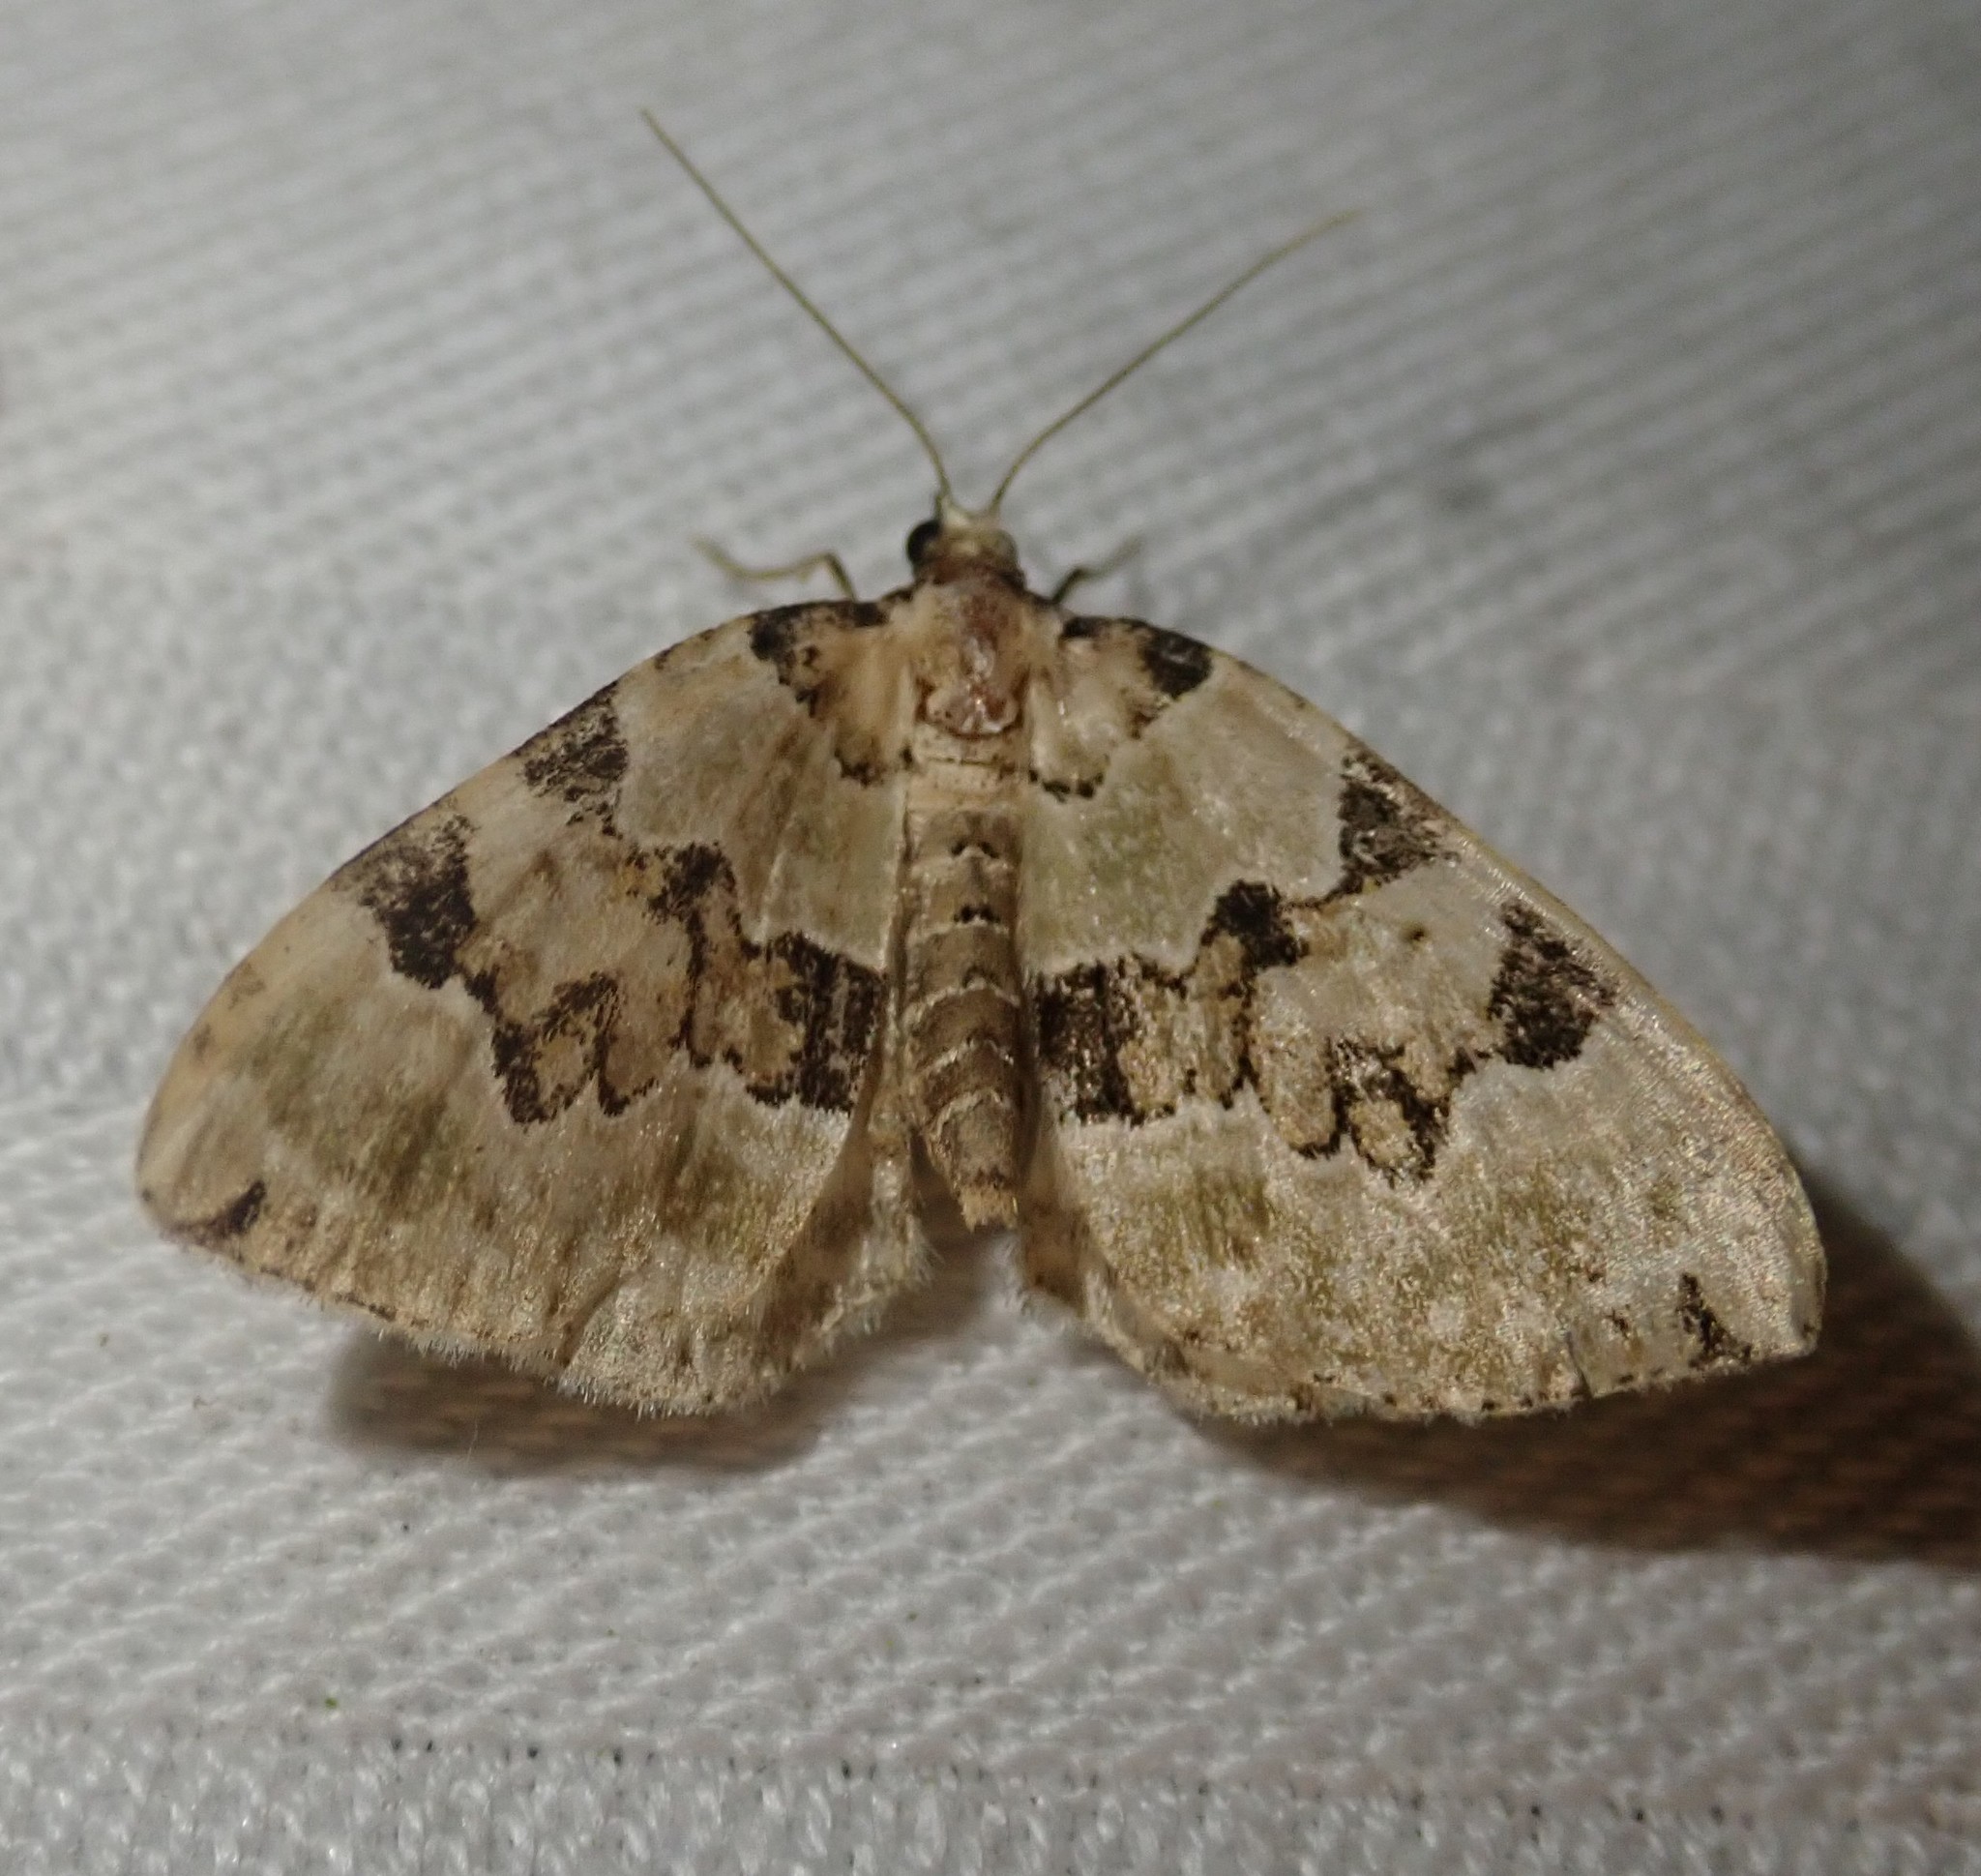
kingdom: Animalia
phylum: Arthropoda
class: Insecta
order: Lepidoptera
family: Geometridae
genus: Colostygia
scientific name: Colostygia pectinataria
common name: Green carpet
